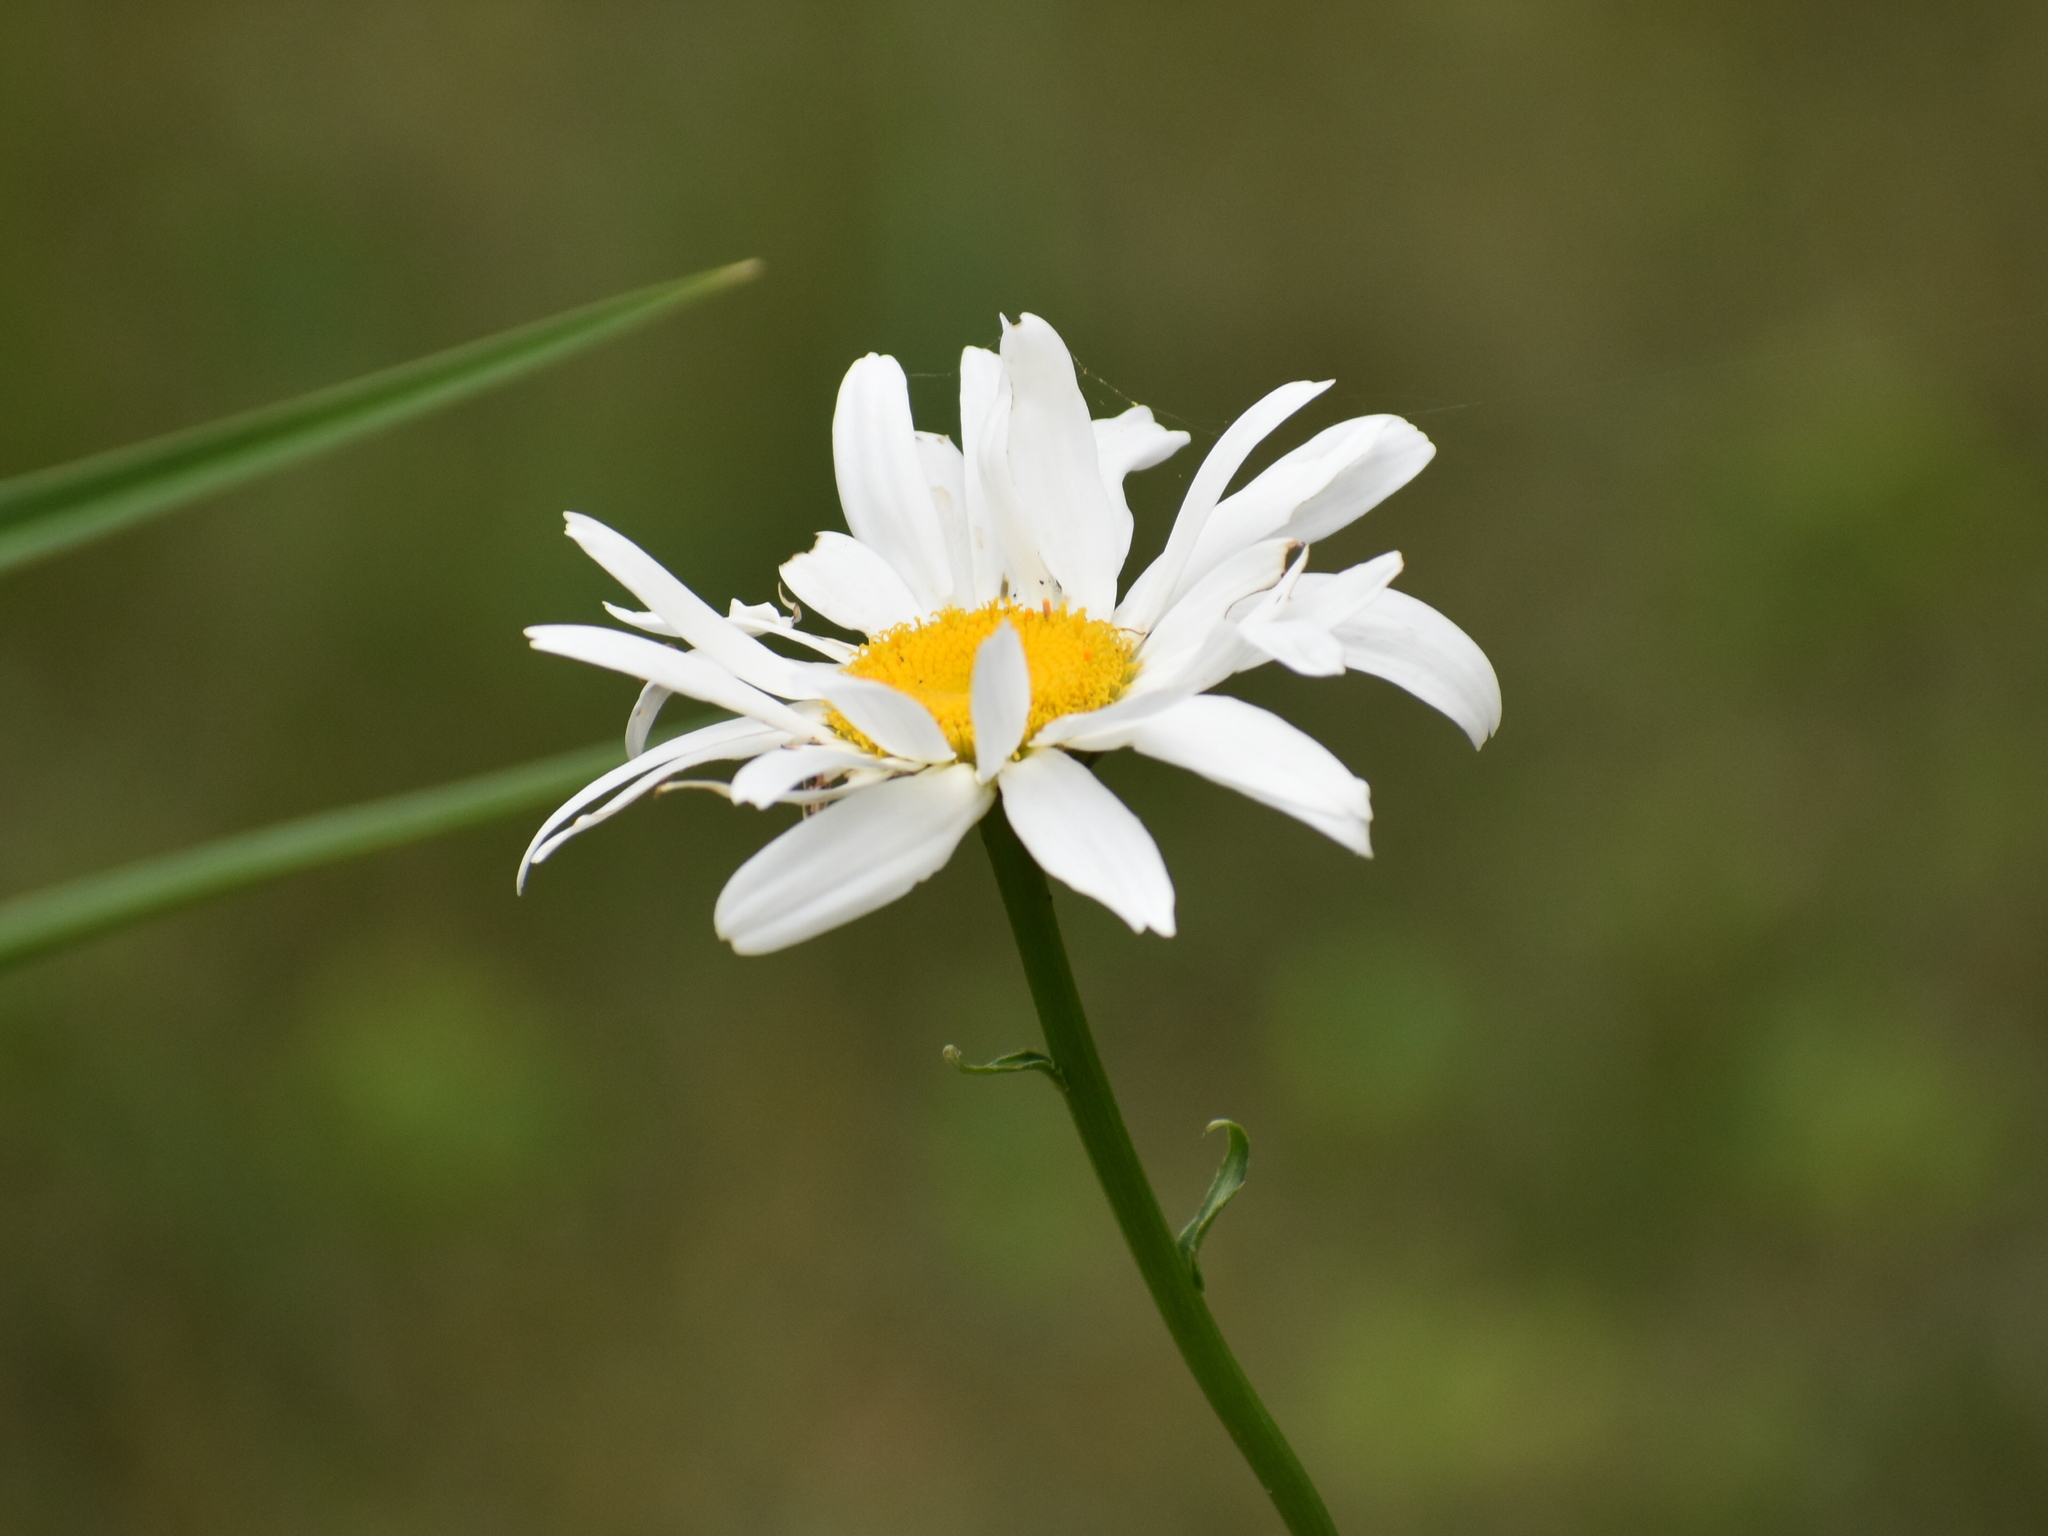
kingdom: Plantae
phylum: Tracheophyta
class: Magnoliopsida
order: Asterales
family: Asteraceae
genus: Leucanthemum
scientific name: Leucanthemum vulgare
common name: Oxeye daisy
